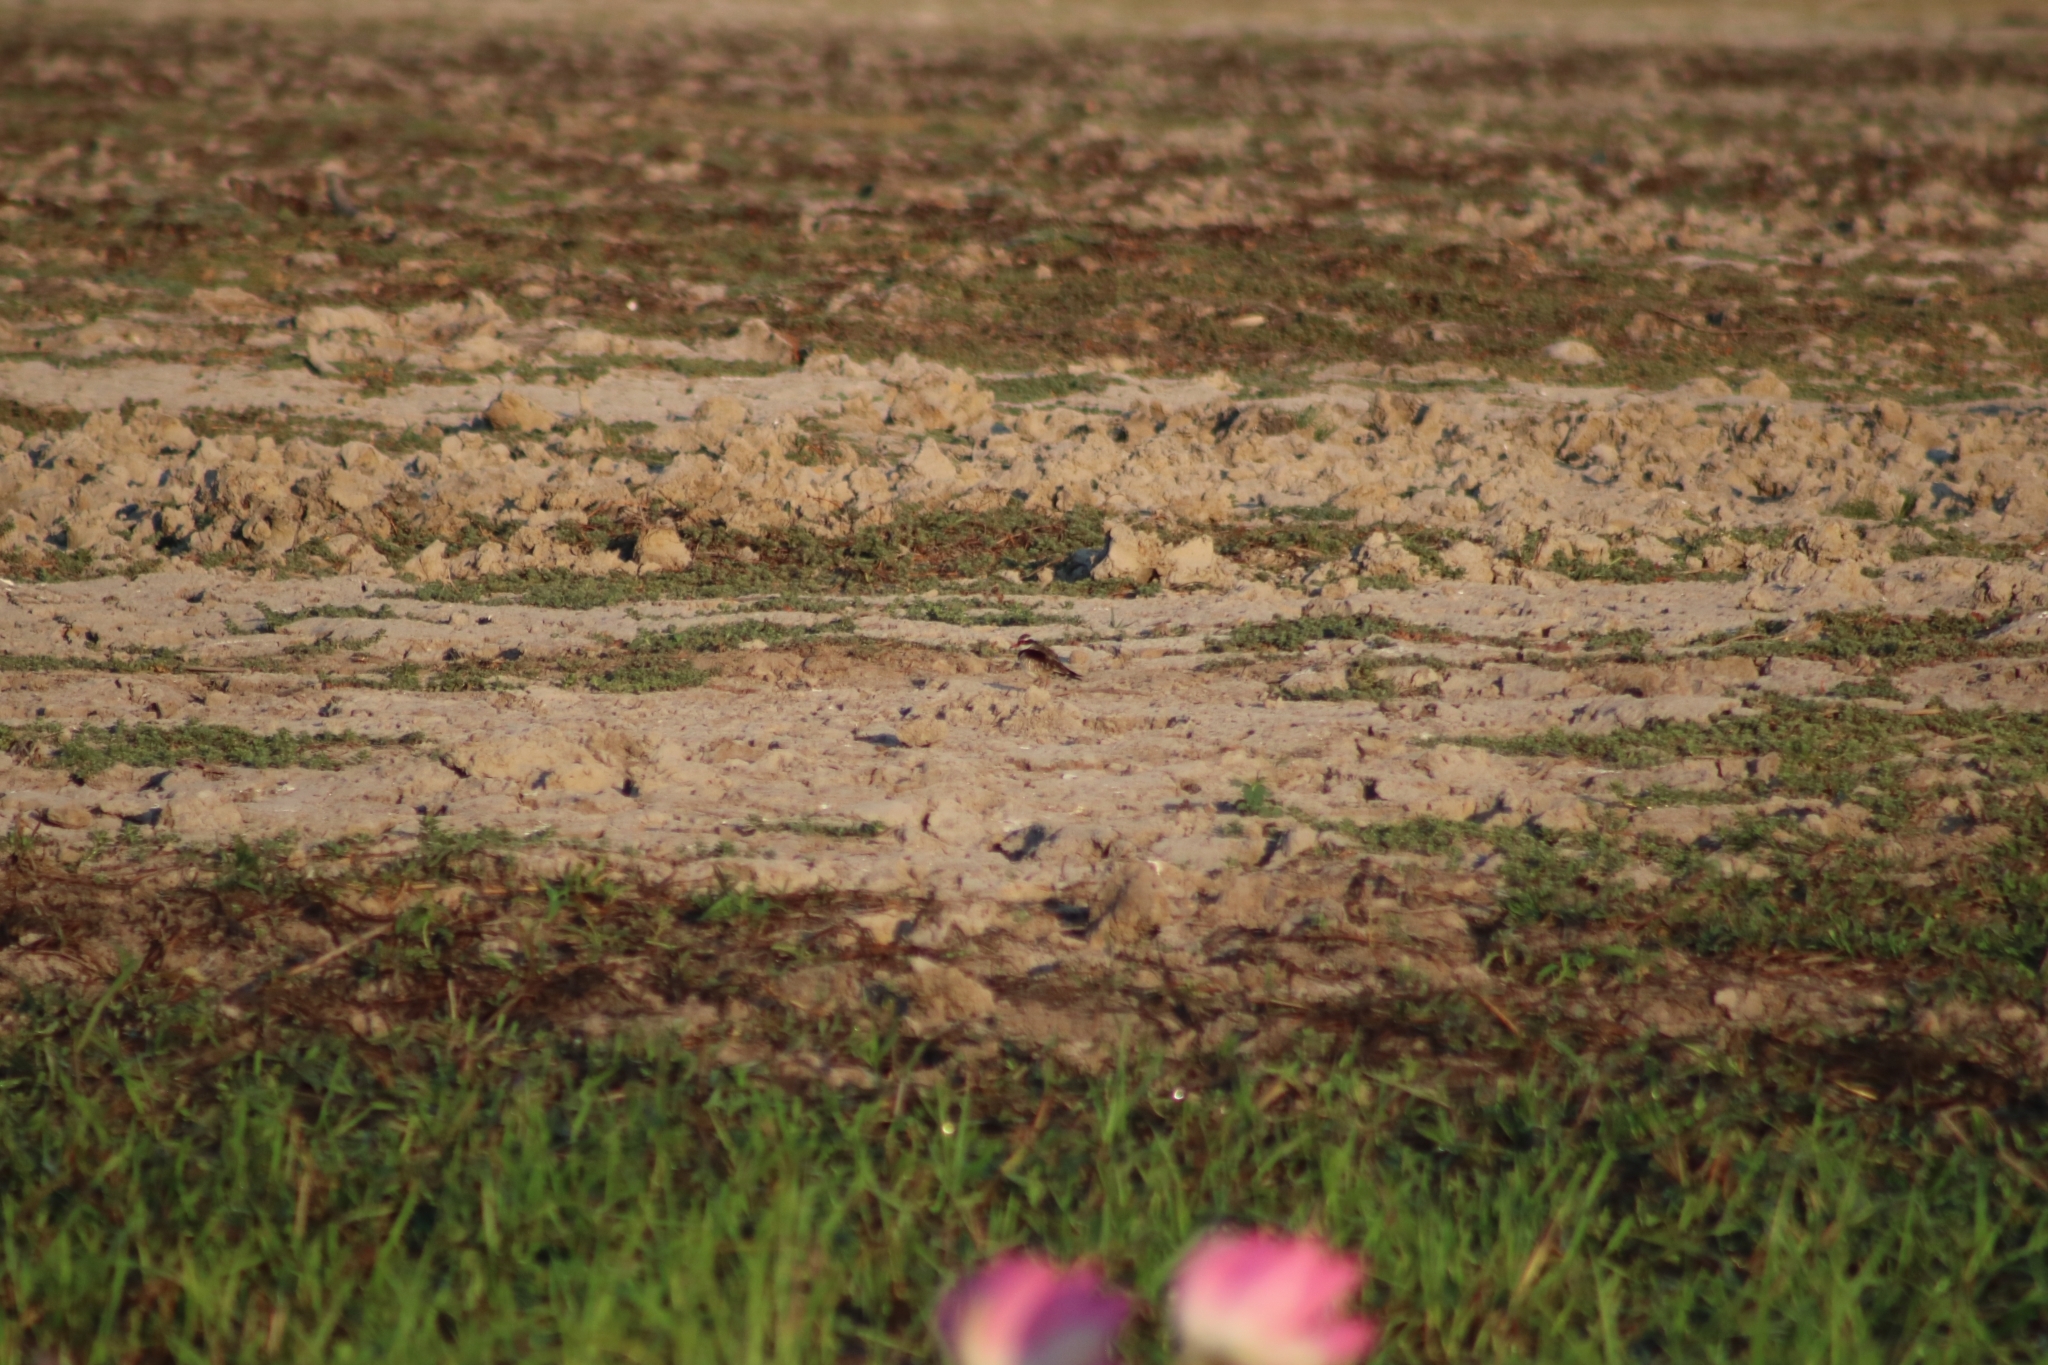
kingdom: Animalia
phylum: Chordata
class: Aves
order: Charadriiformes
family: Charadriidae
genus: Elseyornis
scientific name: Elseyornis melanops
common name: Black-fronted dotterel
